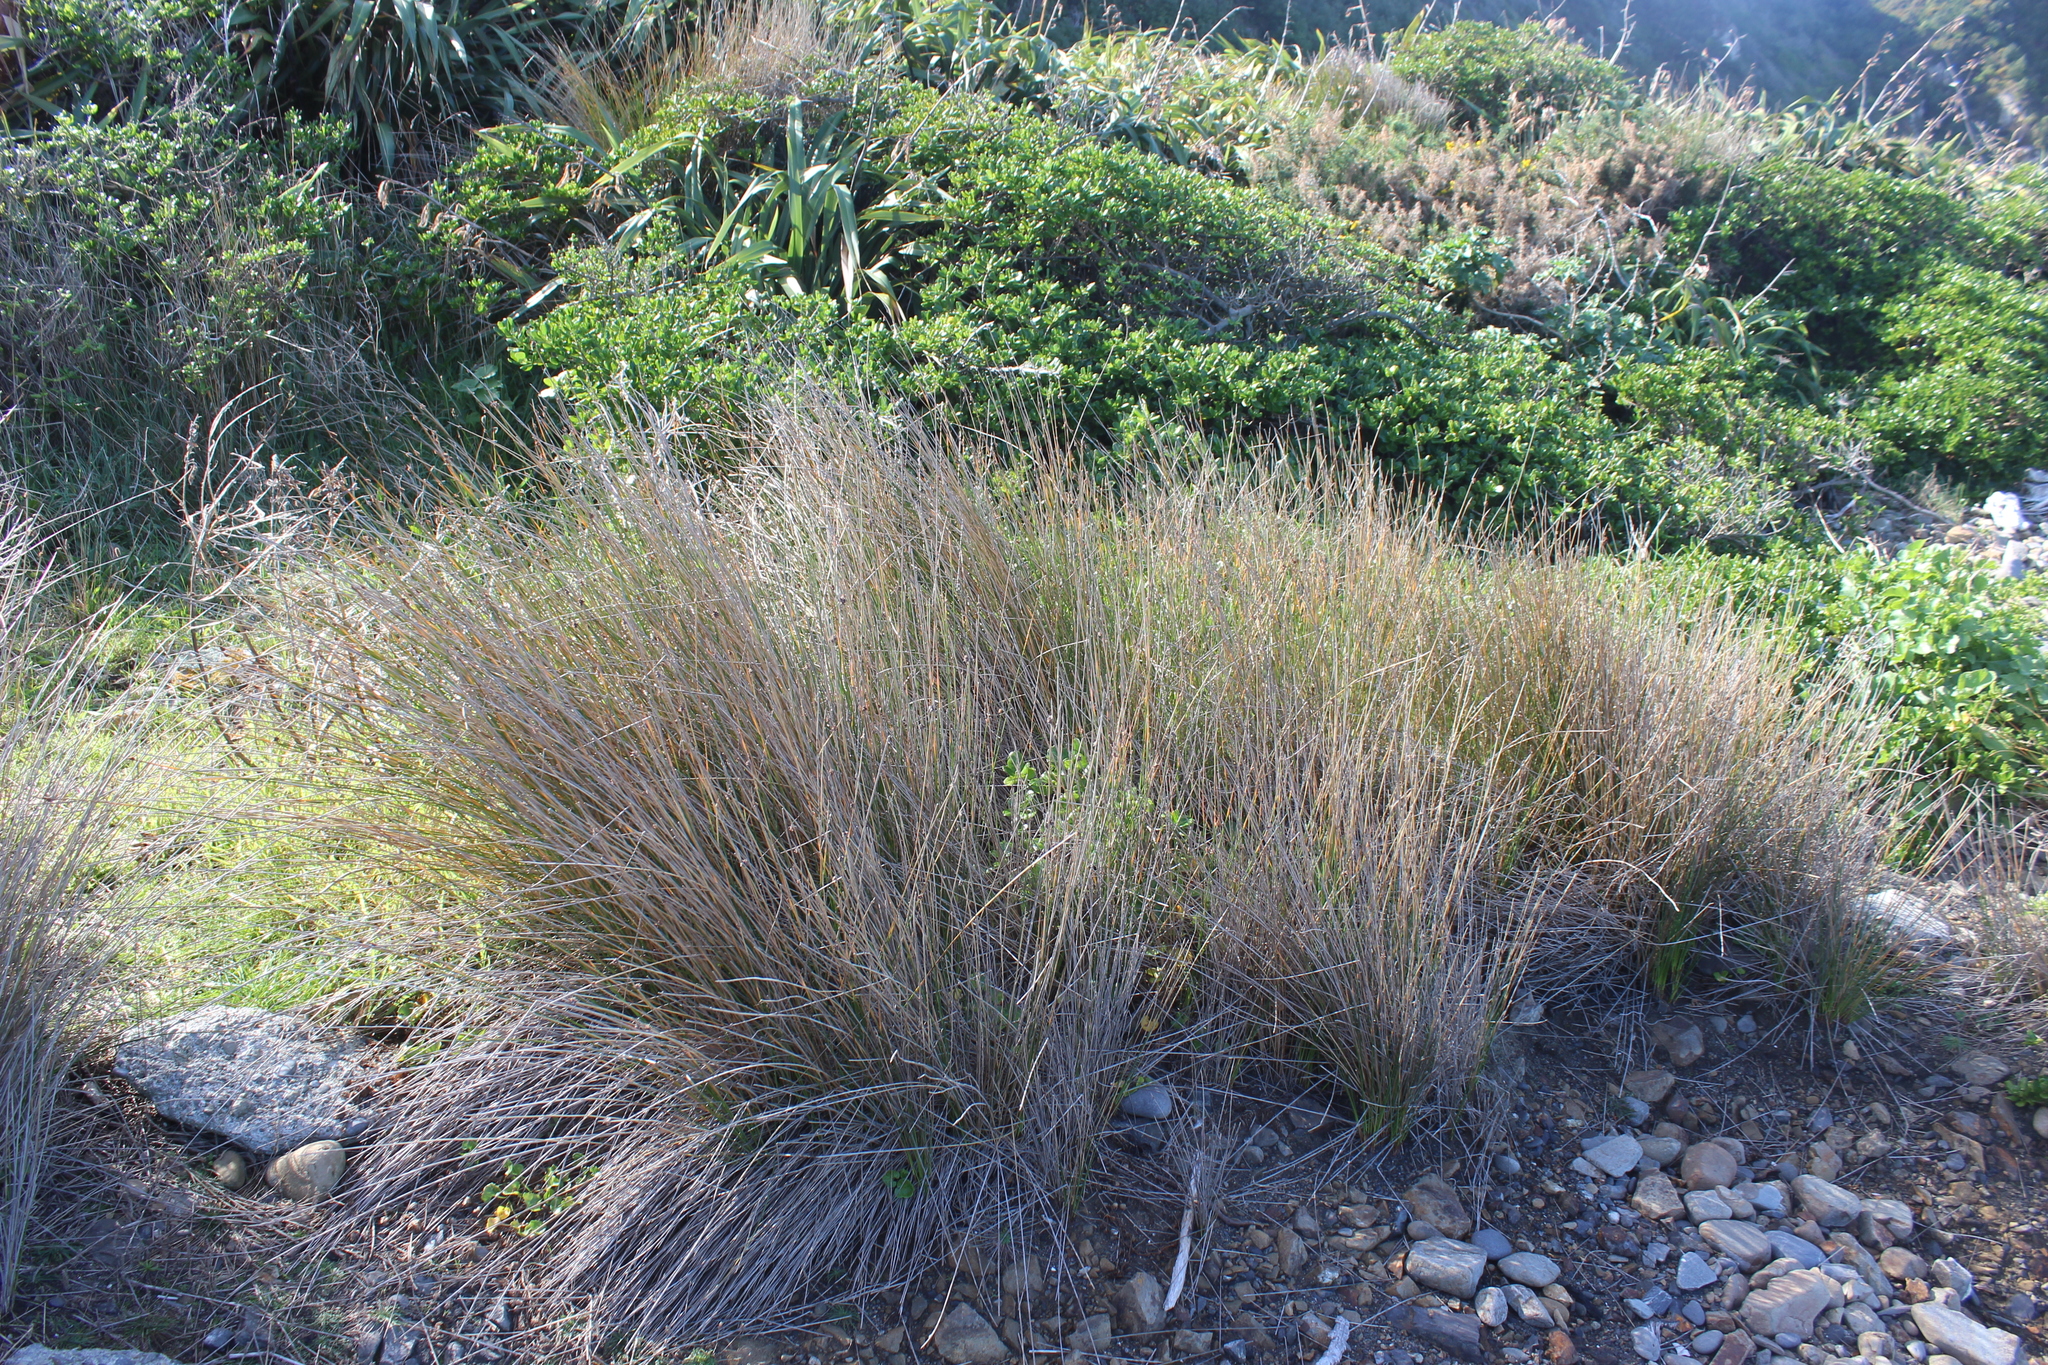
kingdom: Plantae
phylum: Tracheophyta
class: Liliopsida
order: Poales
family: Cyperaceae
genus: Ficinia
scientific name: Ficinia nodosa
